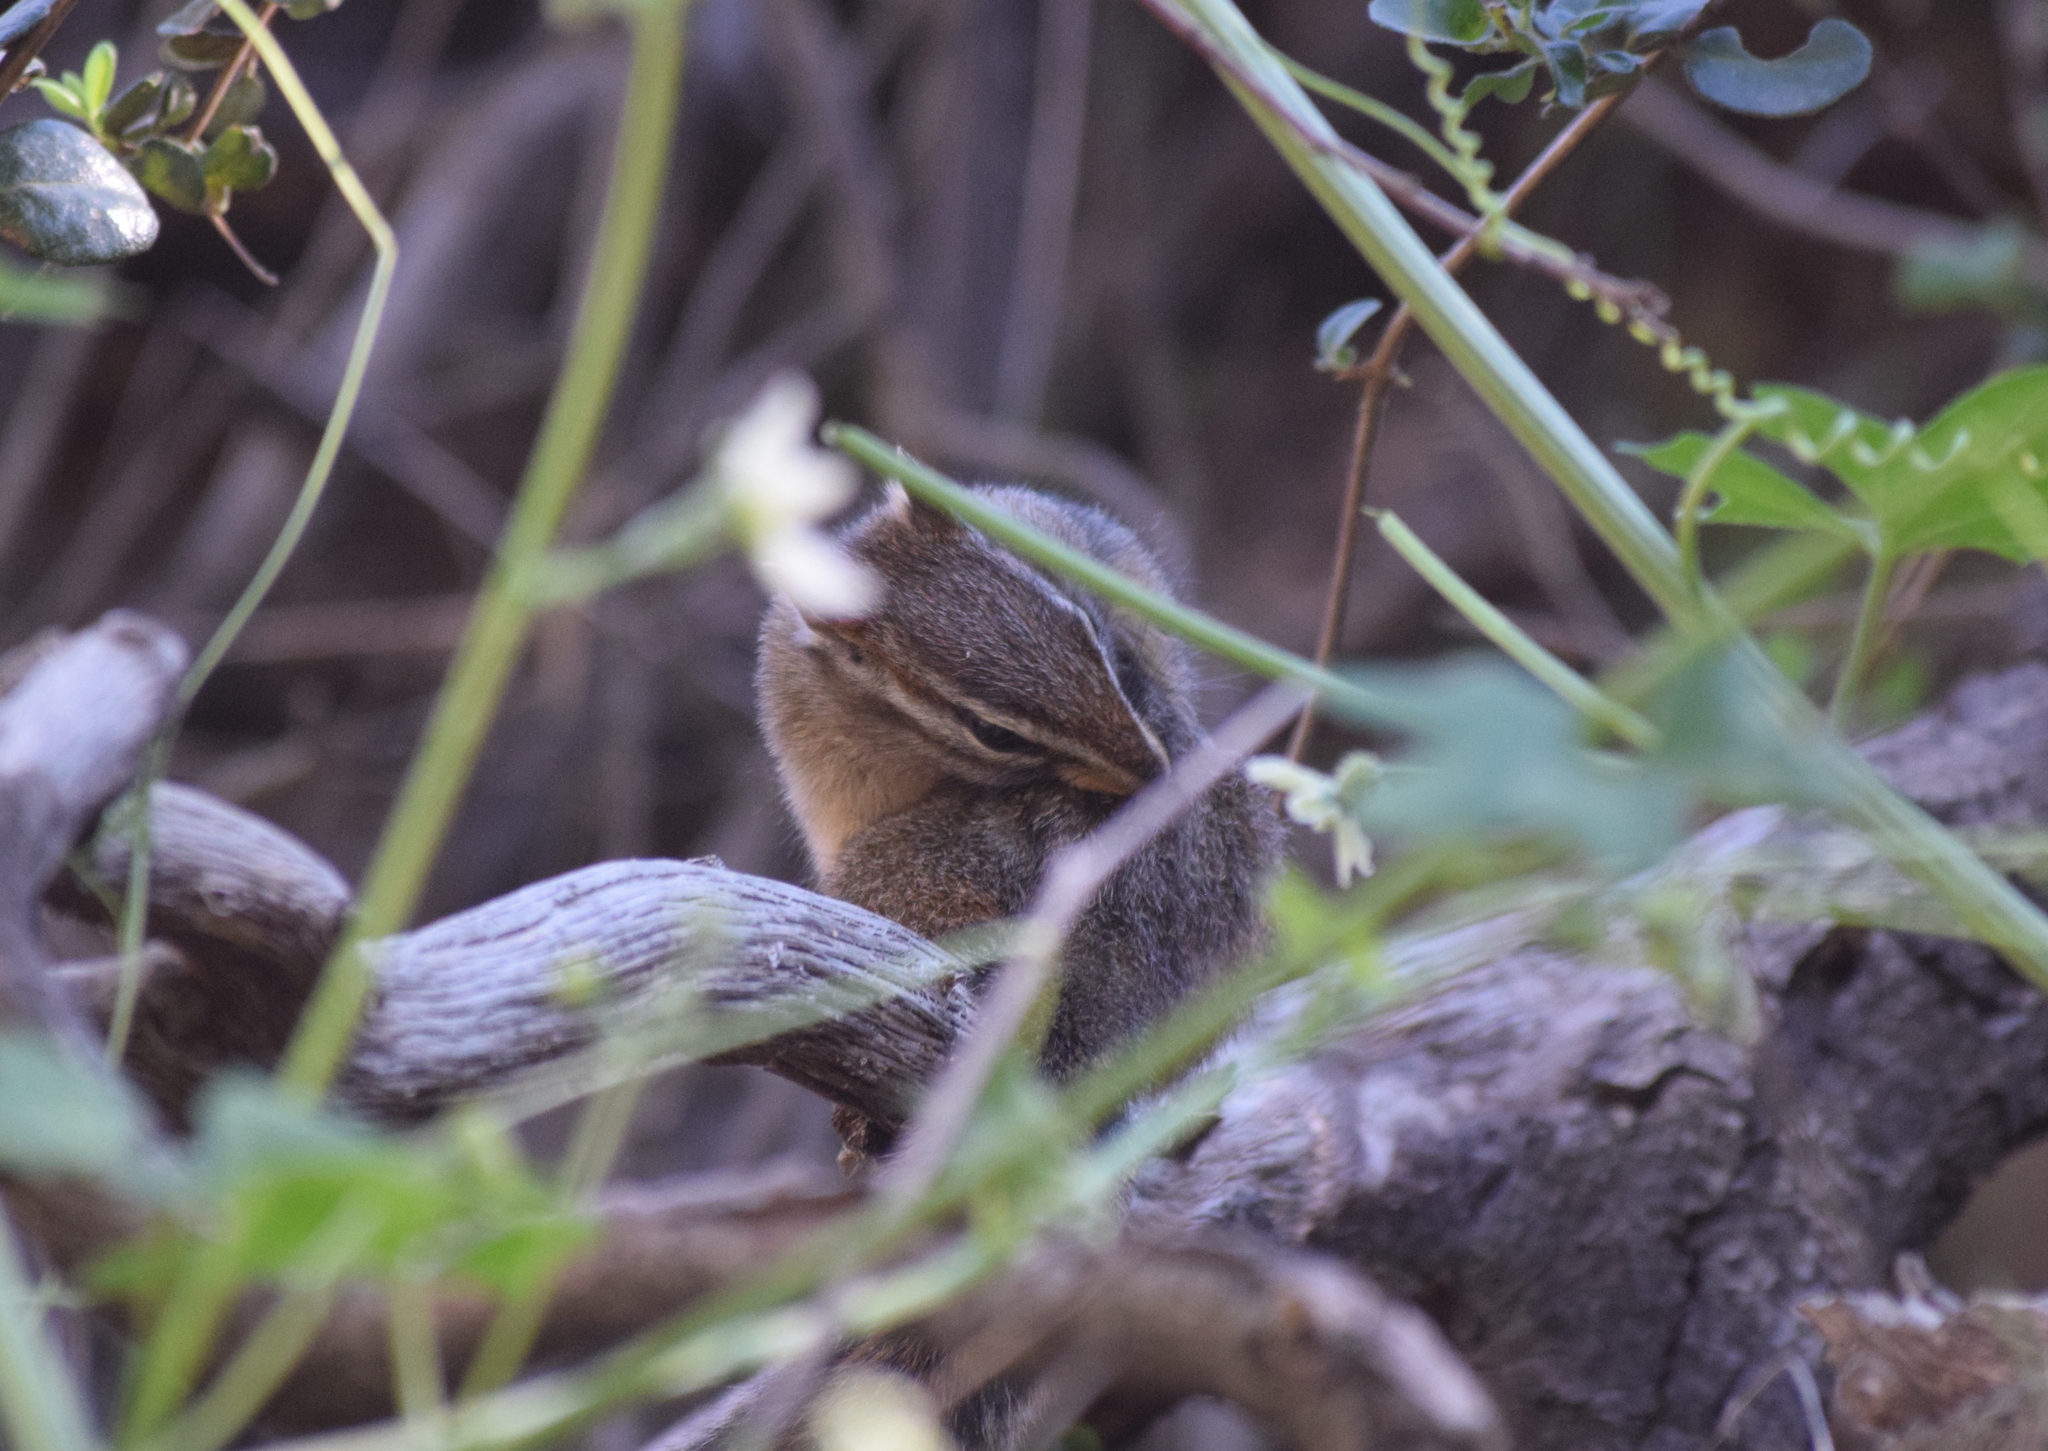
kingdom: Animalia
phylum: Chordata
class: Mammalia
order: Rodentia
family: Sciuridae
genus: Tamias
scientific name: Tamias merriami
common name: Merriam's chipmunk
